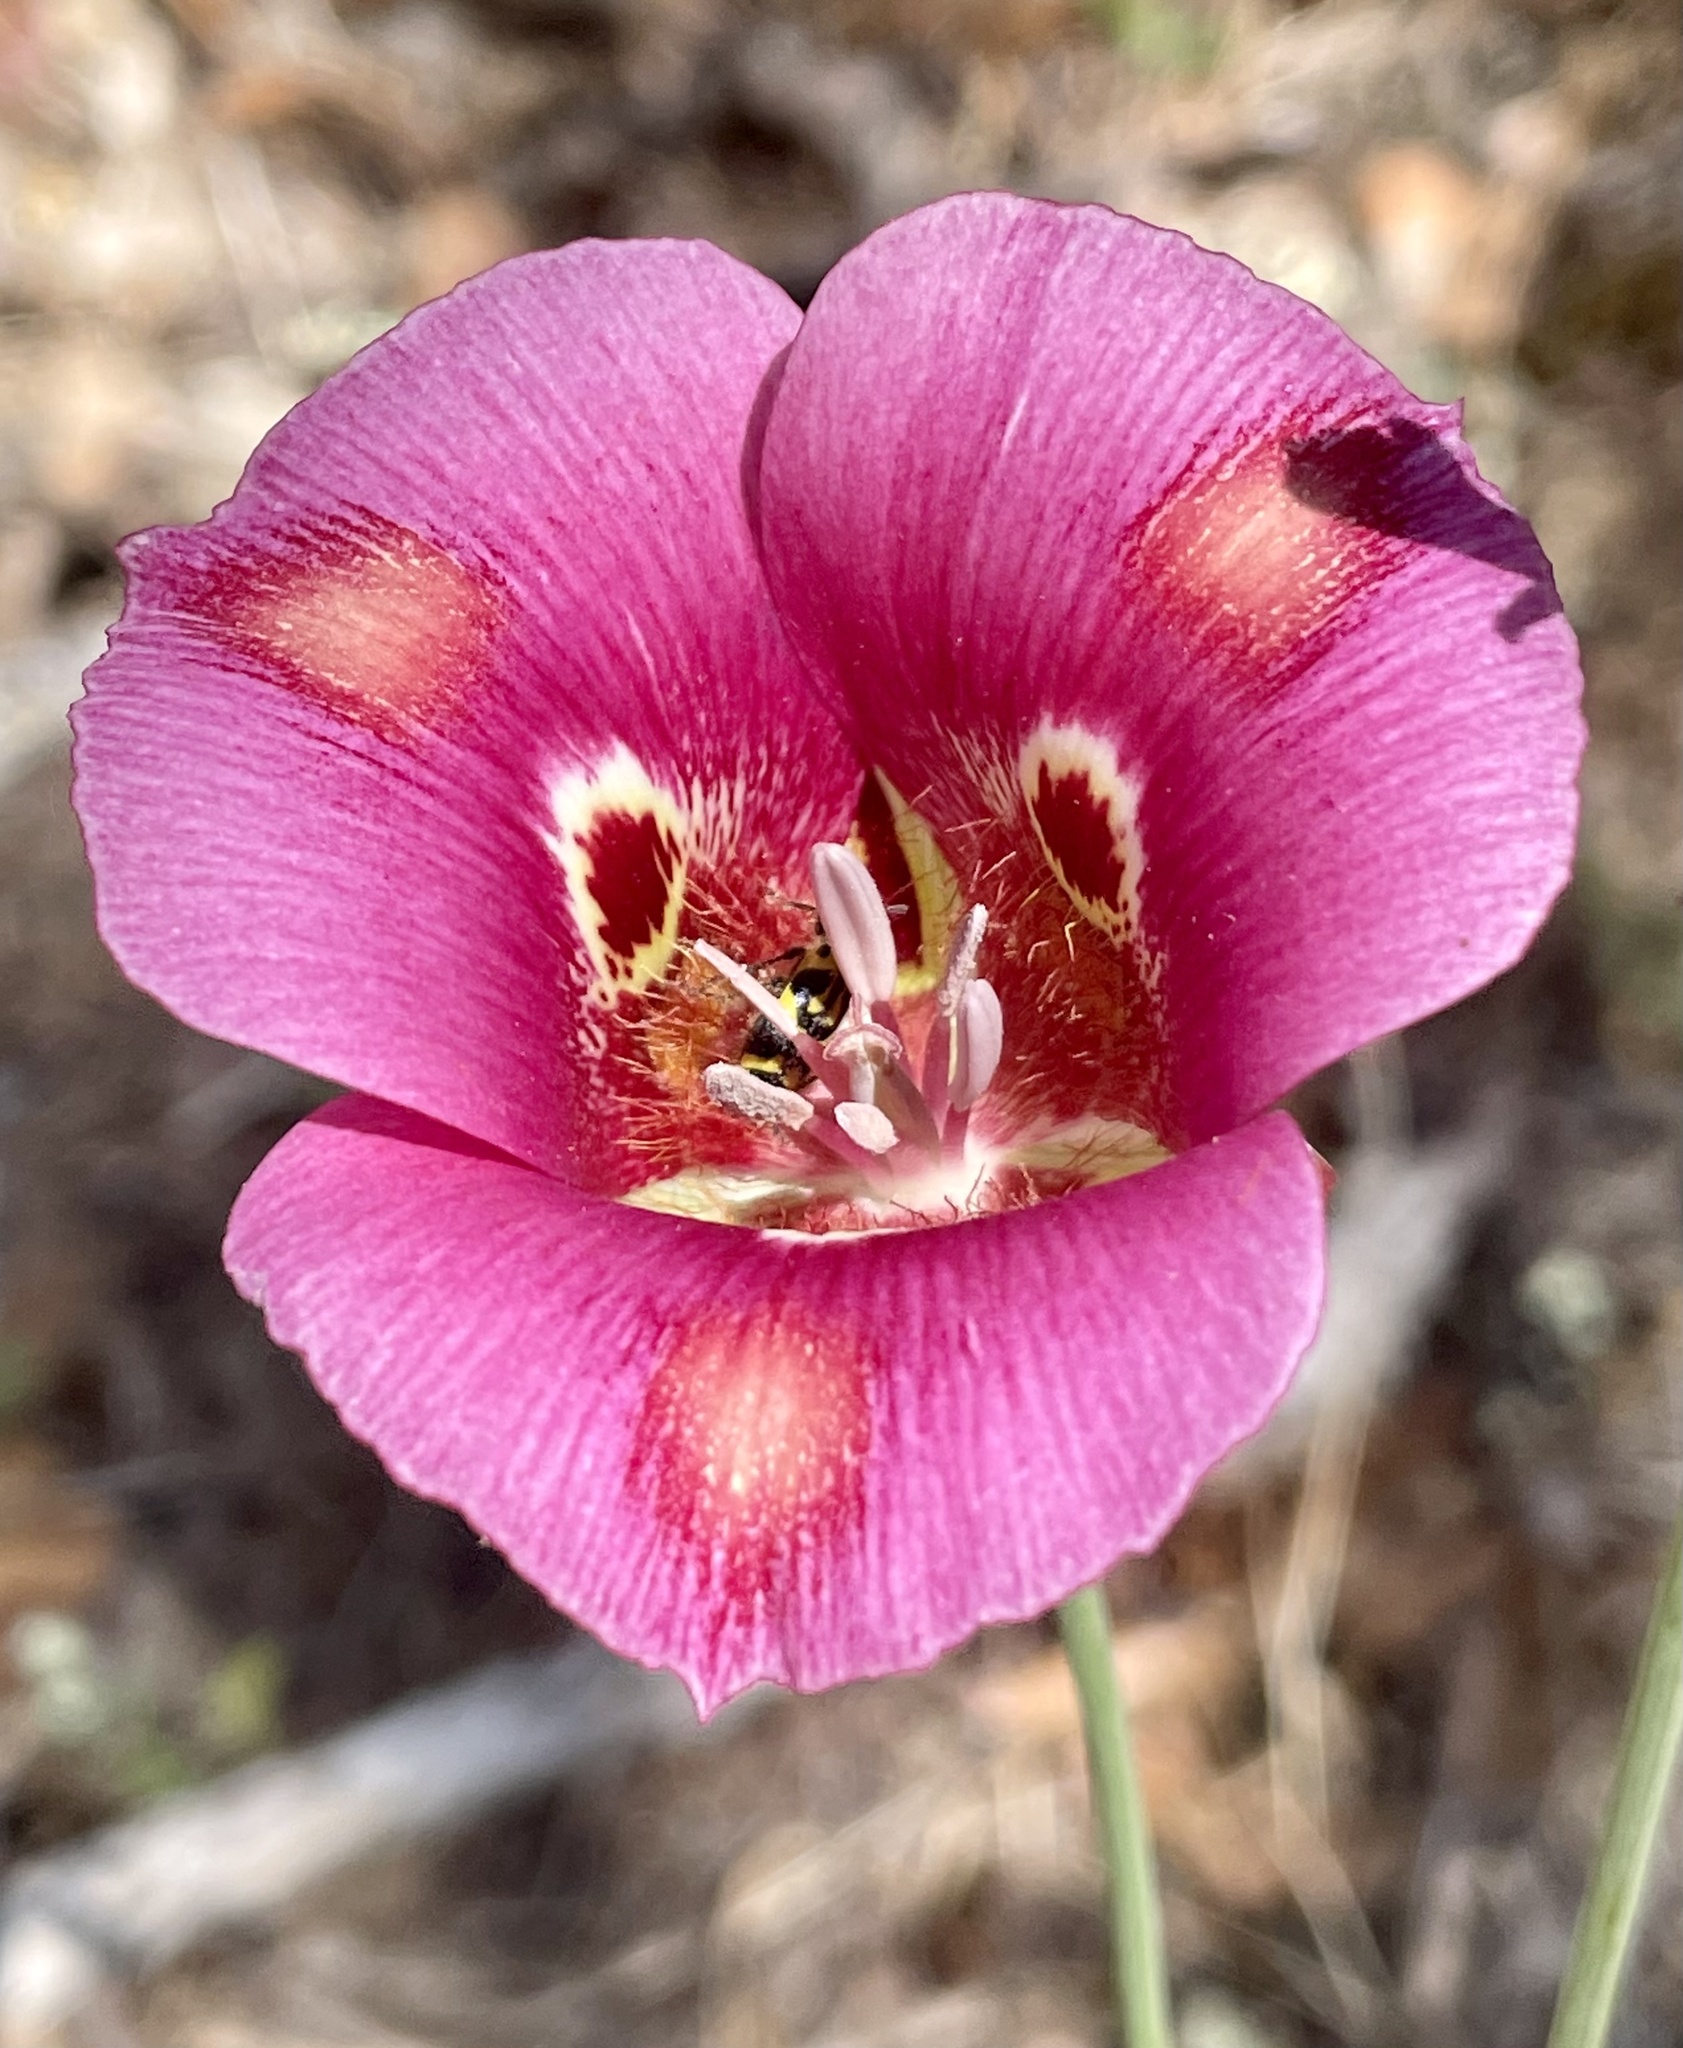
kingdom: Plantae
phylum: Tracheophyta
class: Liliopsida
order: Liliales
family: Liliaceae
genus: Calochortus
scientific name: Calochortus venustus
